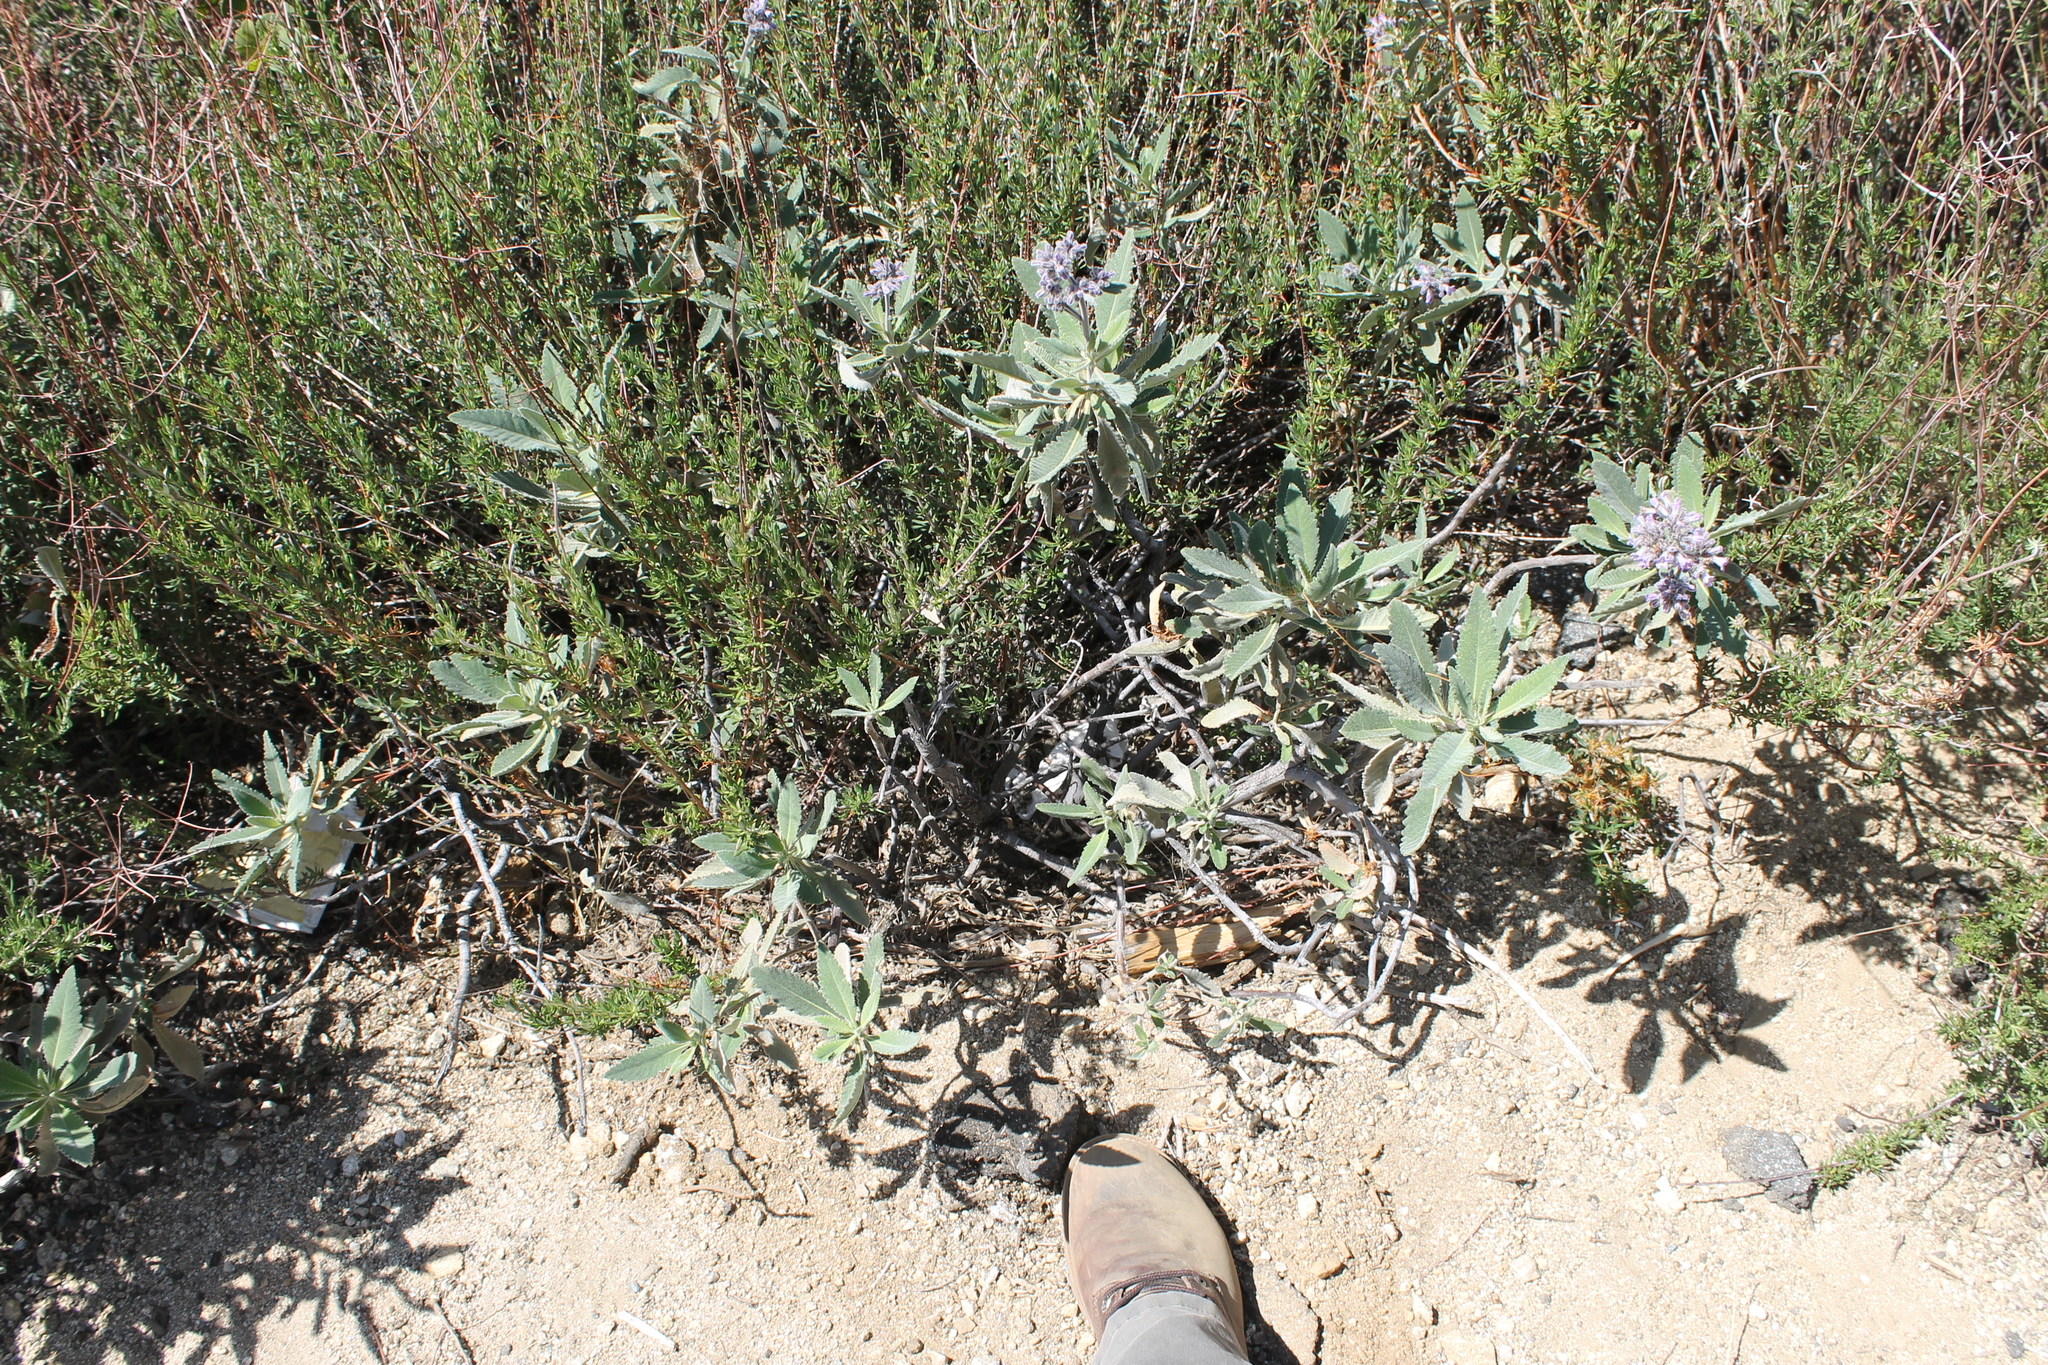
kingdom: Plantae
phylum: Tracheophyta
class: Magnoliopsida
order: Boraginales
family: Namaceae
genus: Eriodictyon
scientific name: Eriodictyon crassifolium
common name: Thick-leaf yerba-santa
